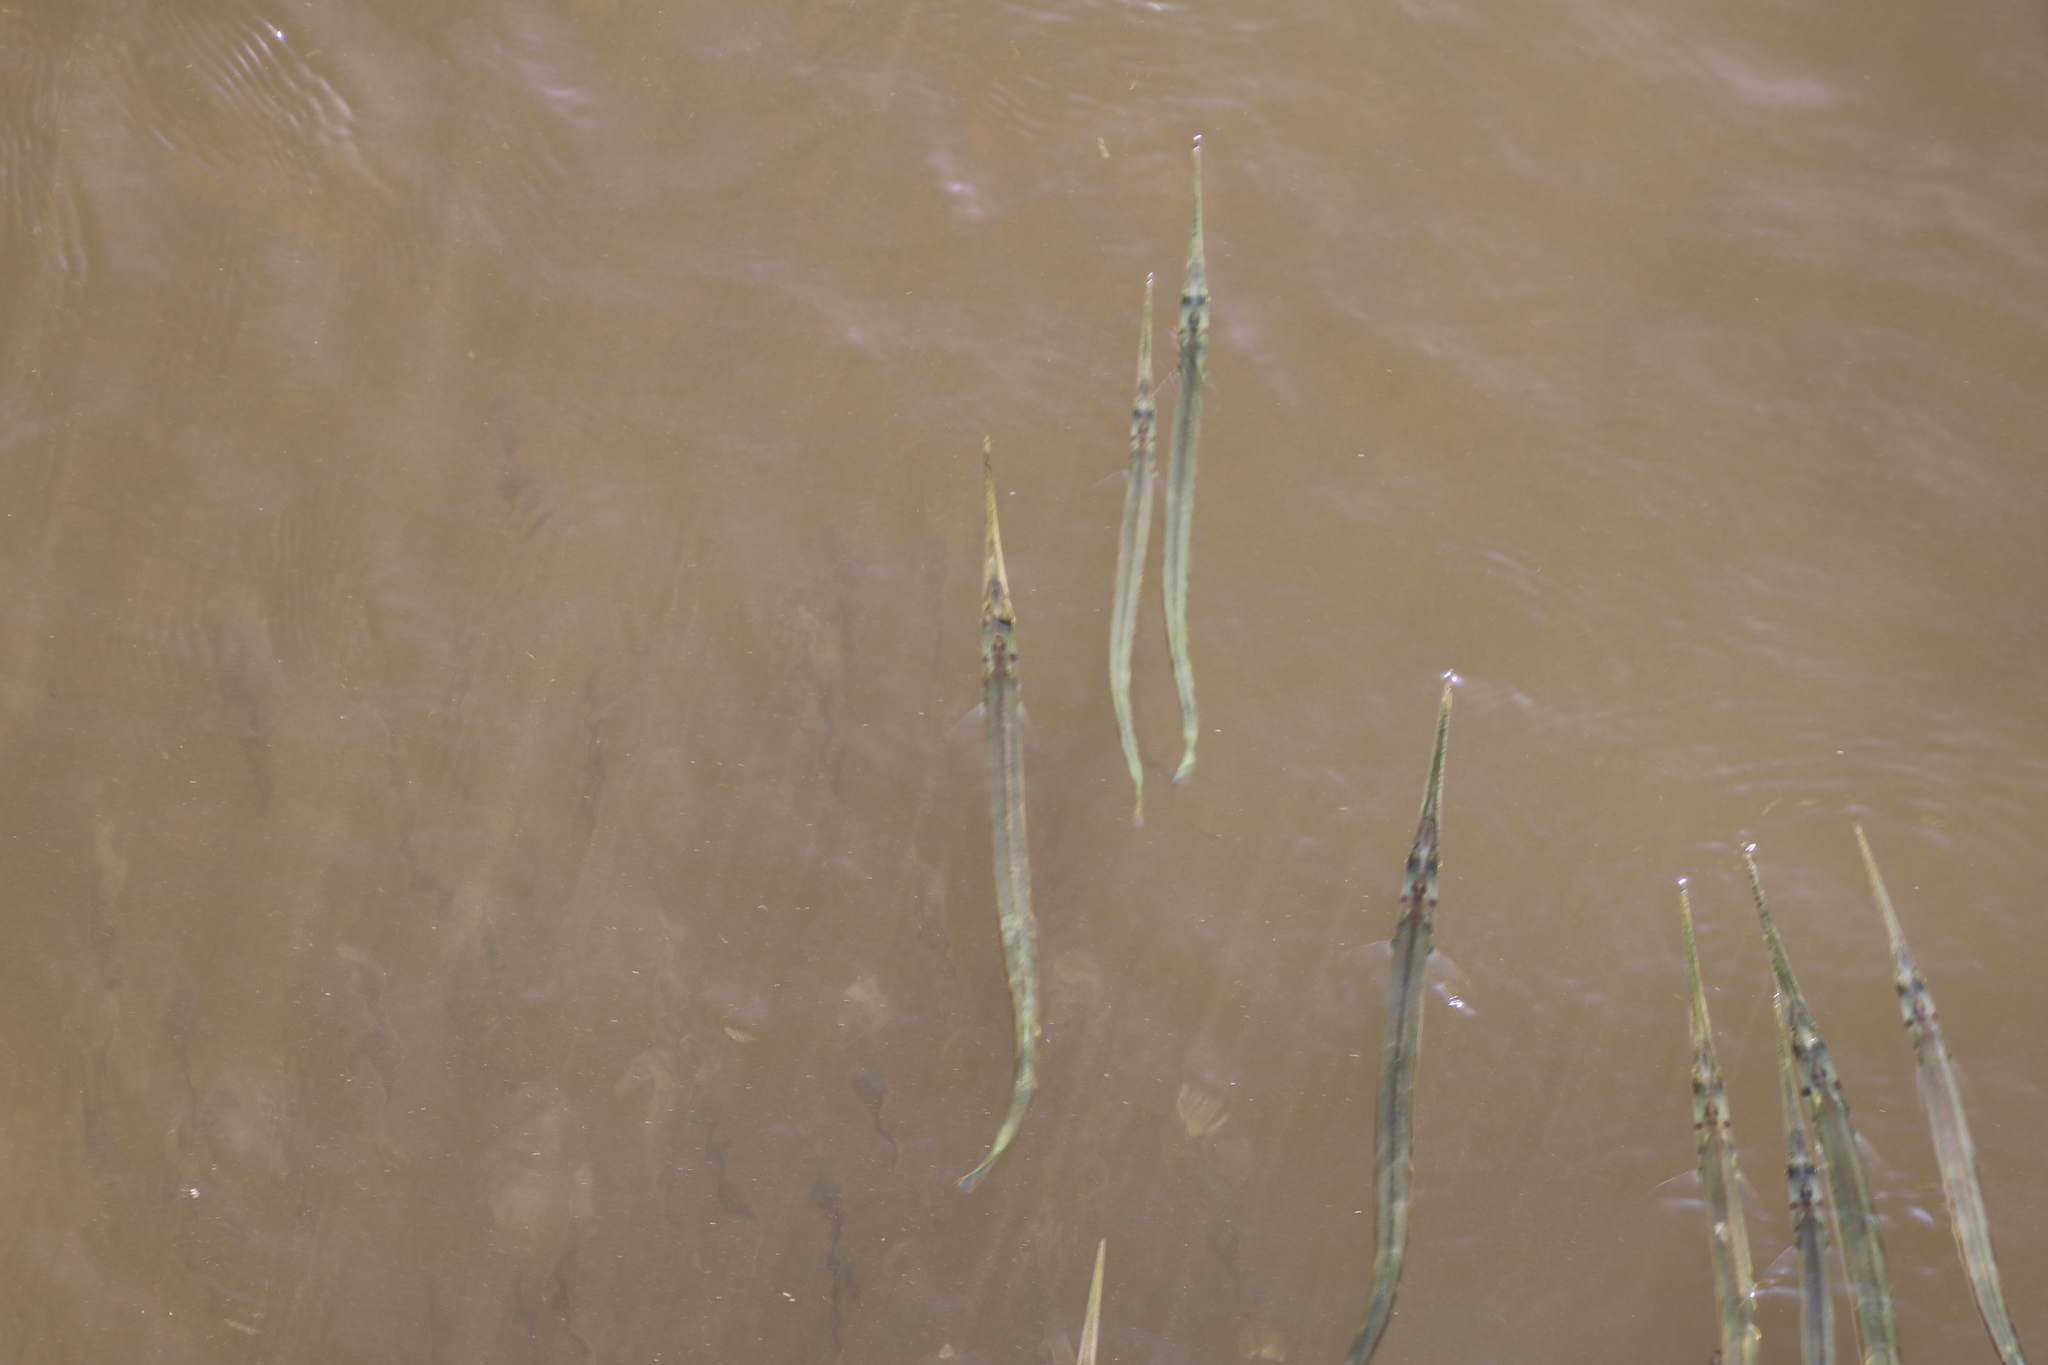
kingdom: Animalia
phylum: Chordata
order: Beloniformes
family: Belonidae
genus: Strongylura
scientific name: Strongylura marina
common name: Atlantic needlefish
